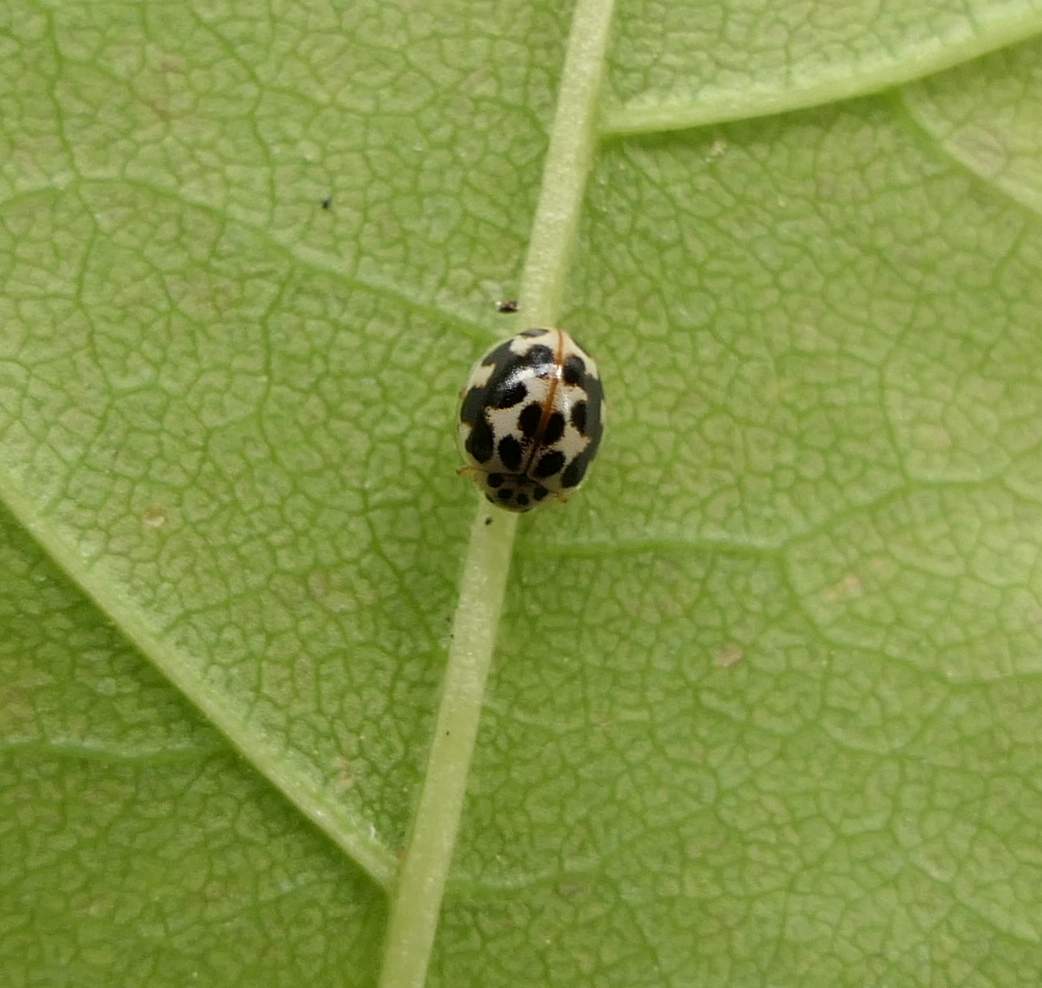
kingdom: Animalia
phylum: Arthropoda
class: Insecta
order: Coleoptera
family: Coccinellidae
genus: Psyllobora
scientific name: Psyllobora vigintimaculata
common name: Ladybird beetle
